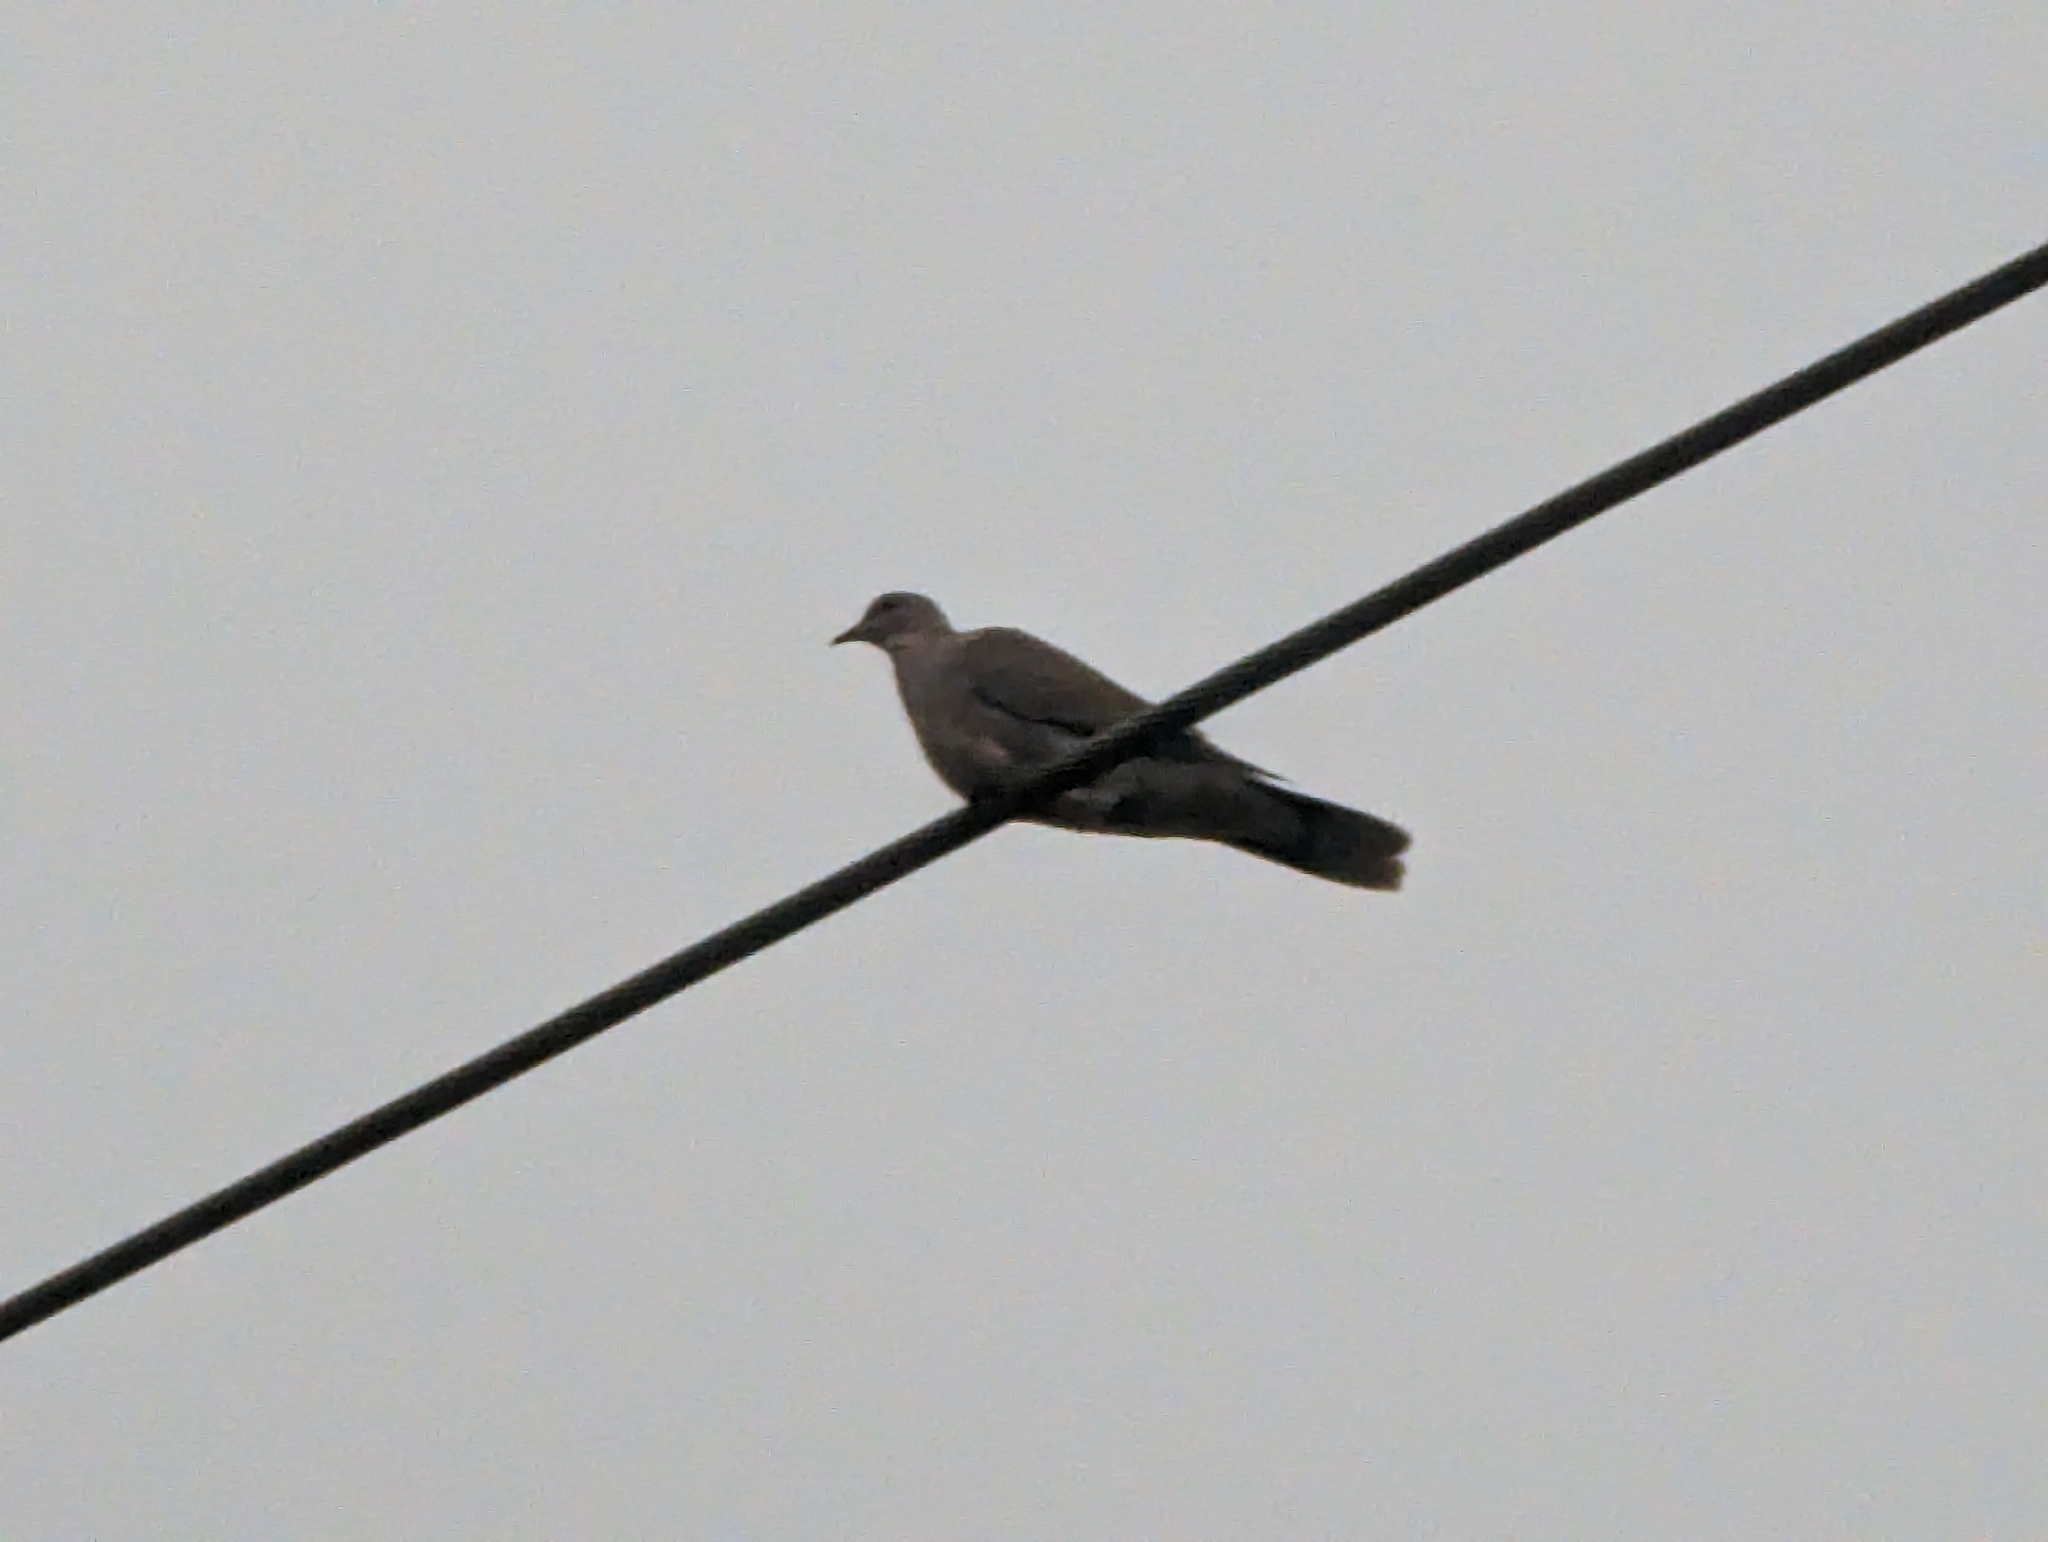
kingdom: Animalia
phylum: Chordata
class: Aves
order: Columbiformes
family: Columbidae
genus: Streptopelia
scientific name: Streptopelia decaocto
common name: Eurasian collared dove
